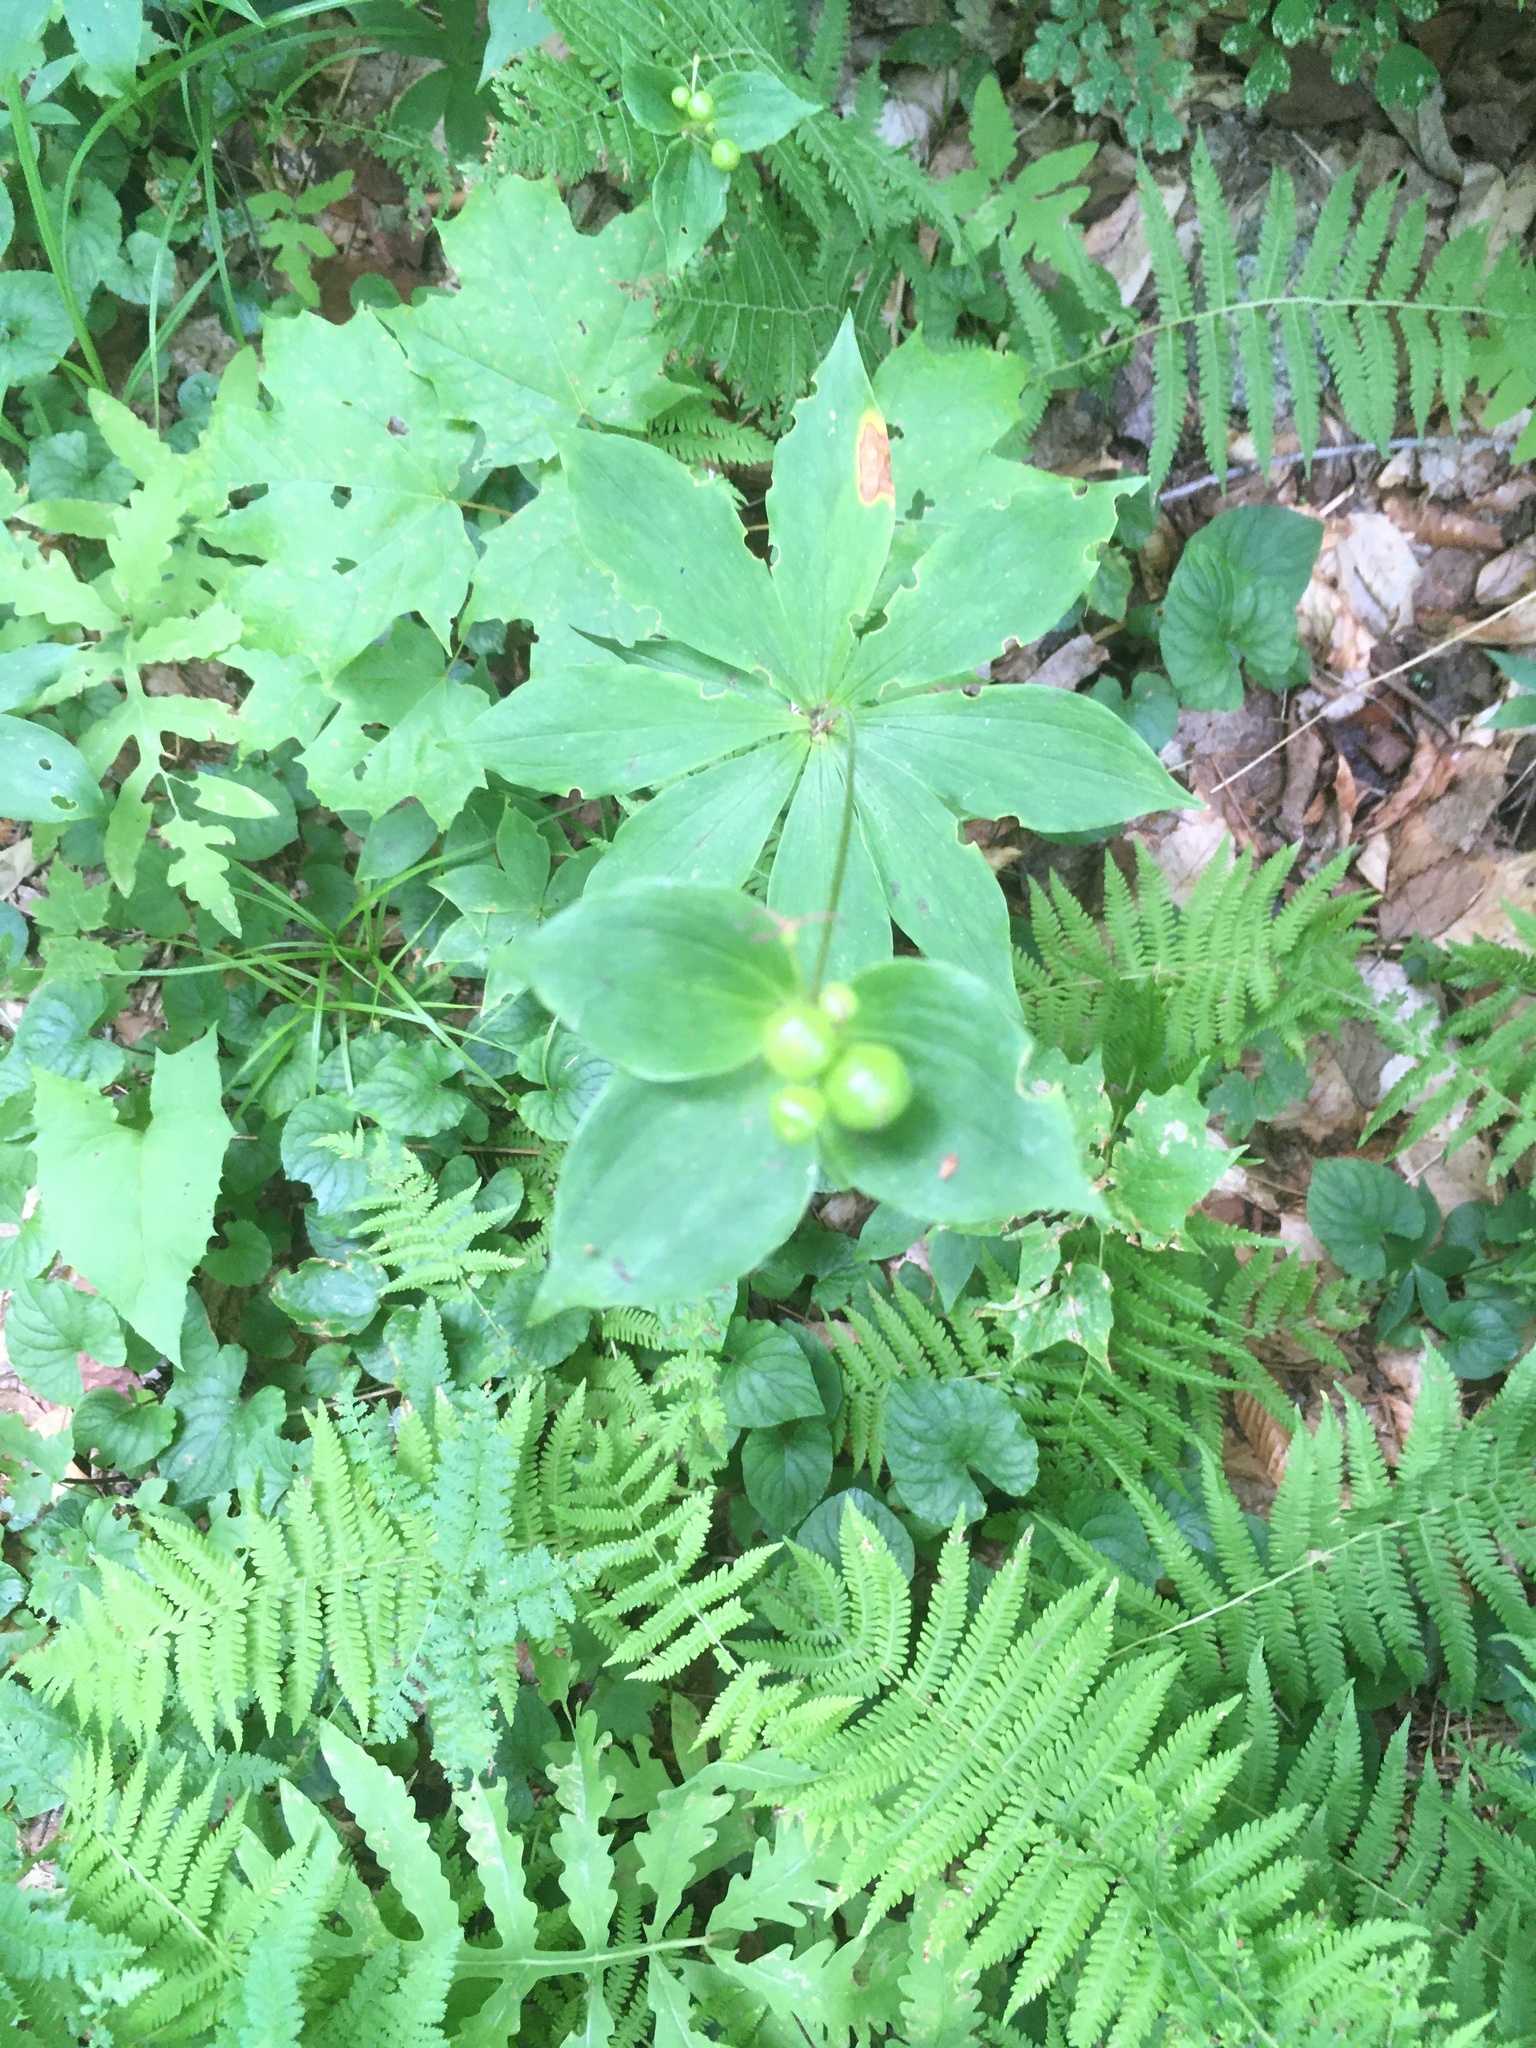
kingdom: Plantae
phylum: Tracheophyta
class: Liliopsida
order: Liliales
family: Liliaceae
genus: Medeola
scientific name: Medeola virginiana
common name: Indian cucumber-root
